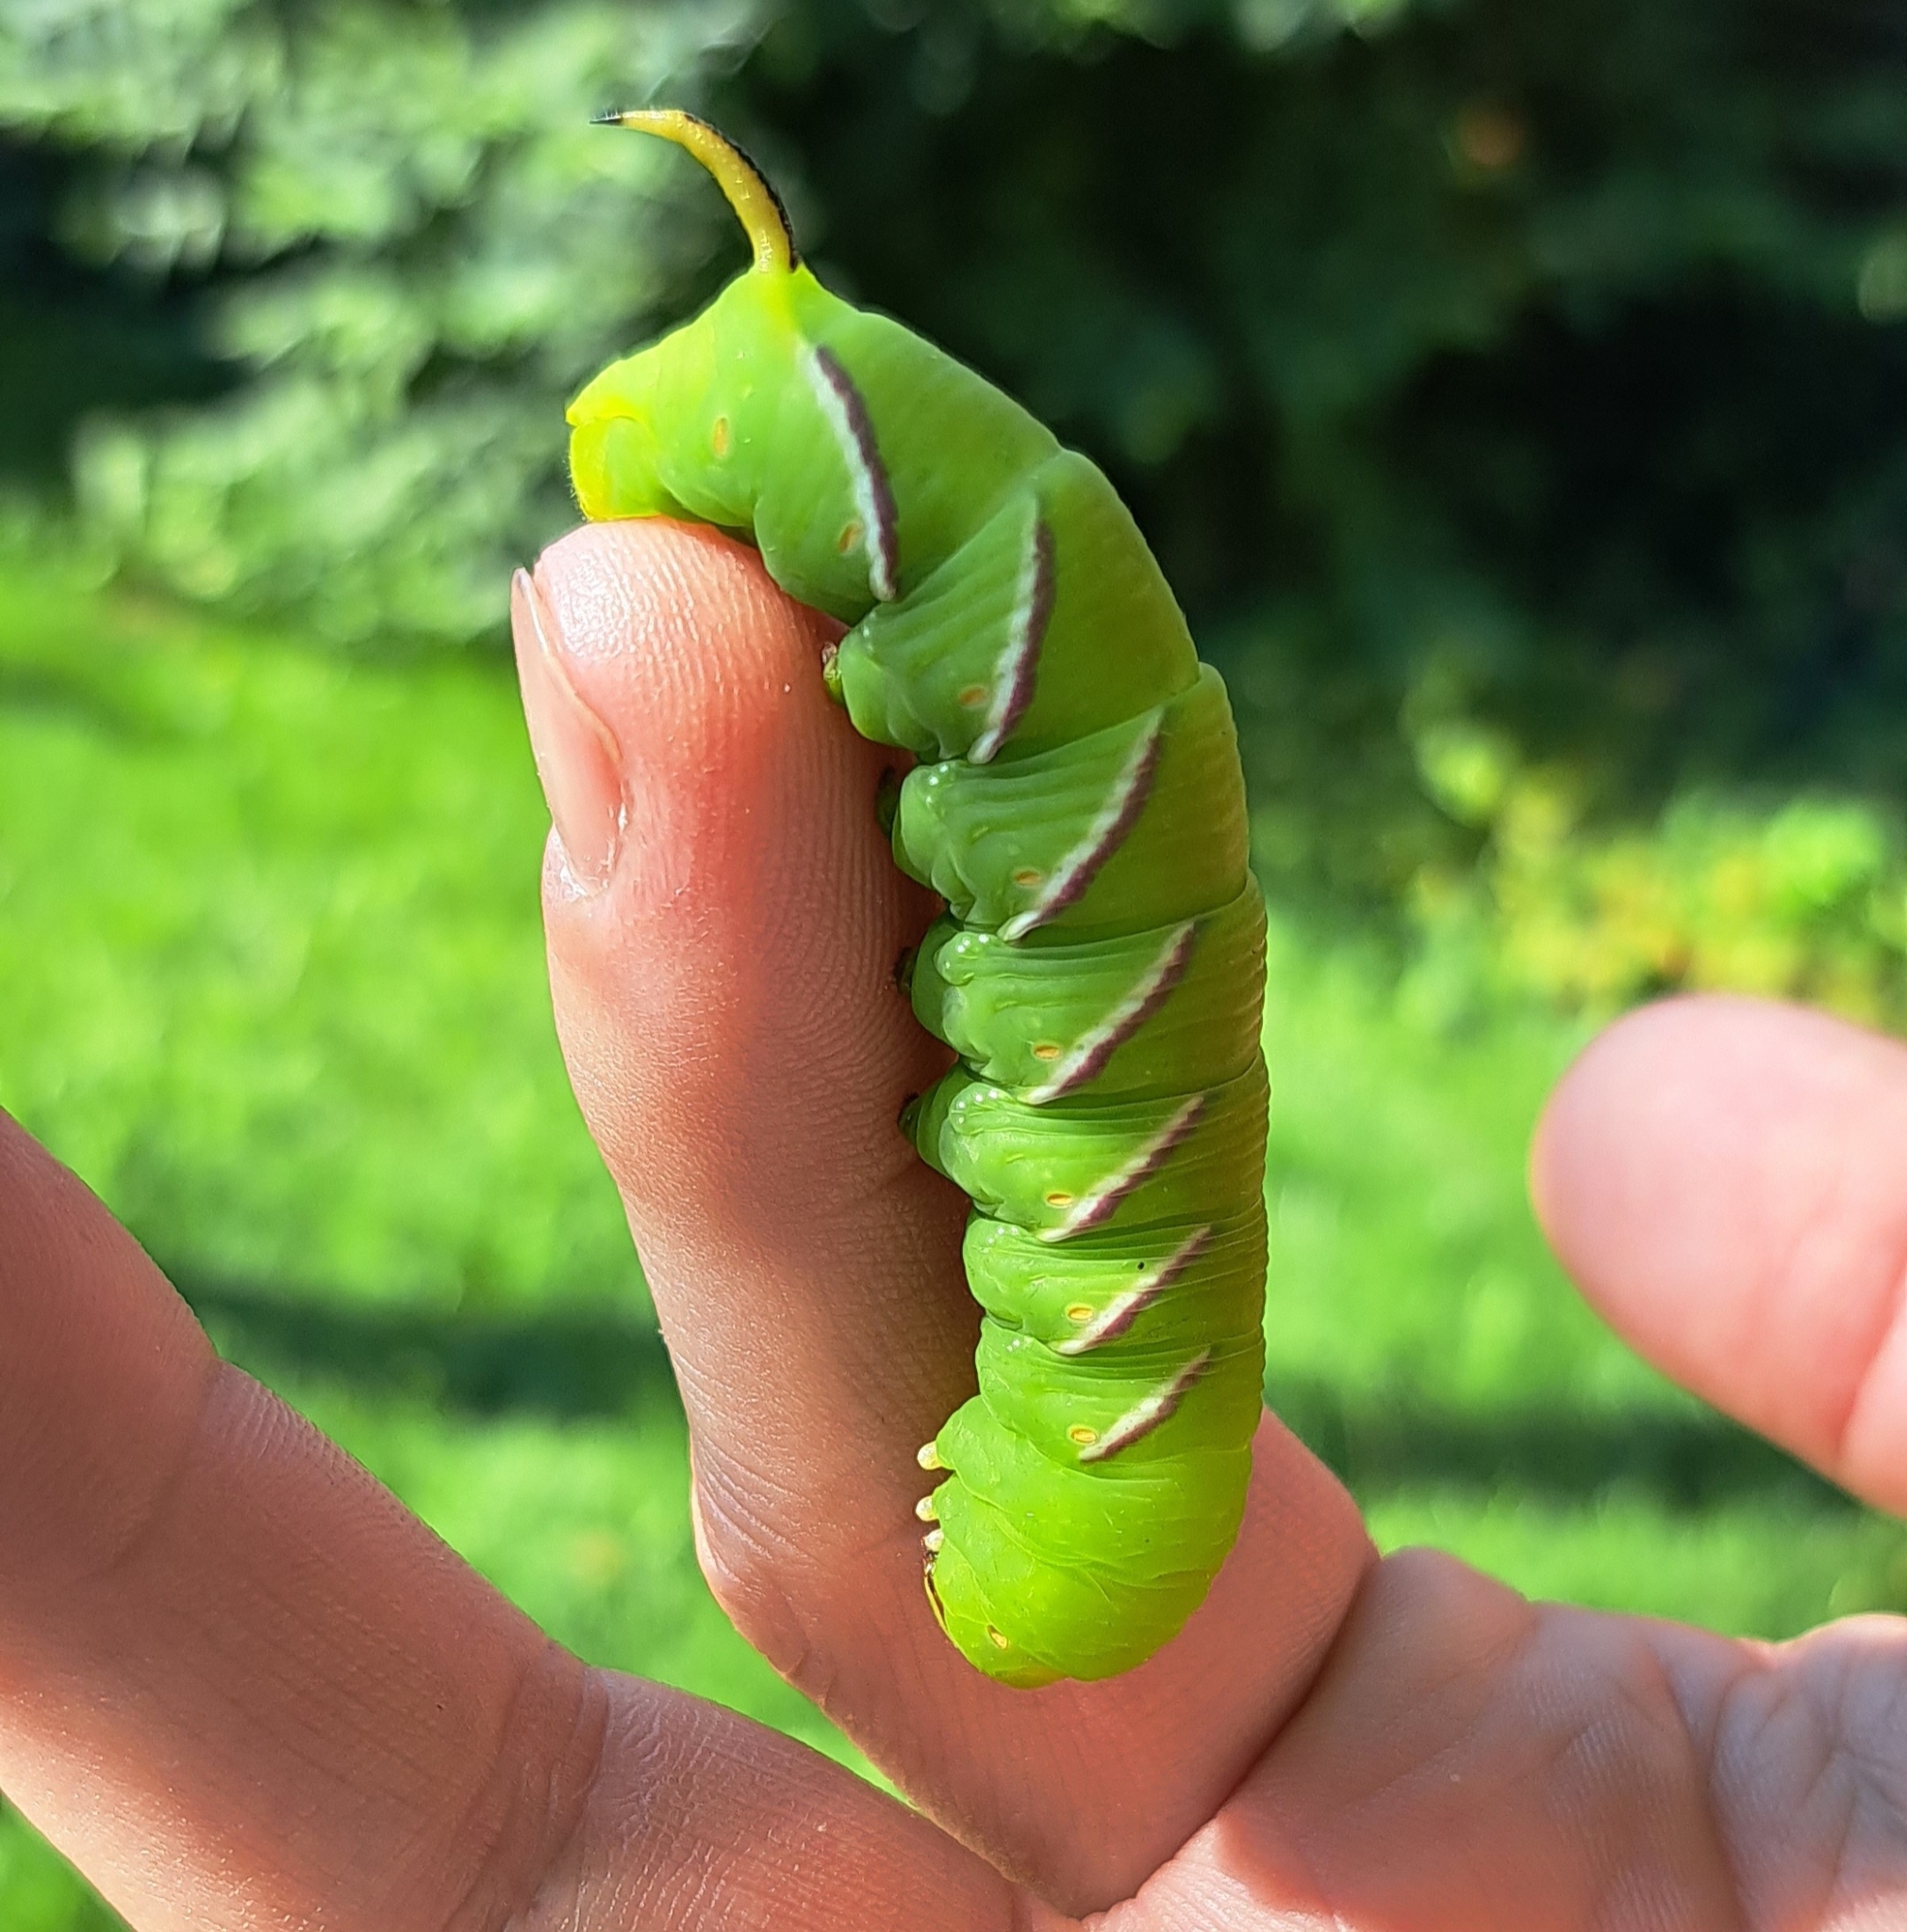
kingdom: Animalia
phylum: Arthropoda
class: Insecta
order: Lepidoptera
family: Sphingidae
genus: Sphinx
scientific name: Sphinx ligustri
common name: Privet hawk-moth
